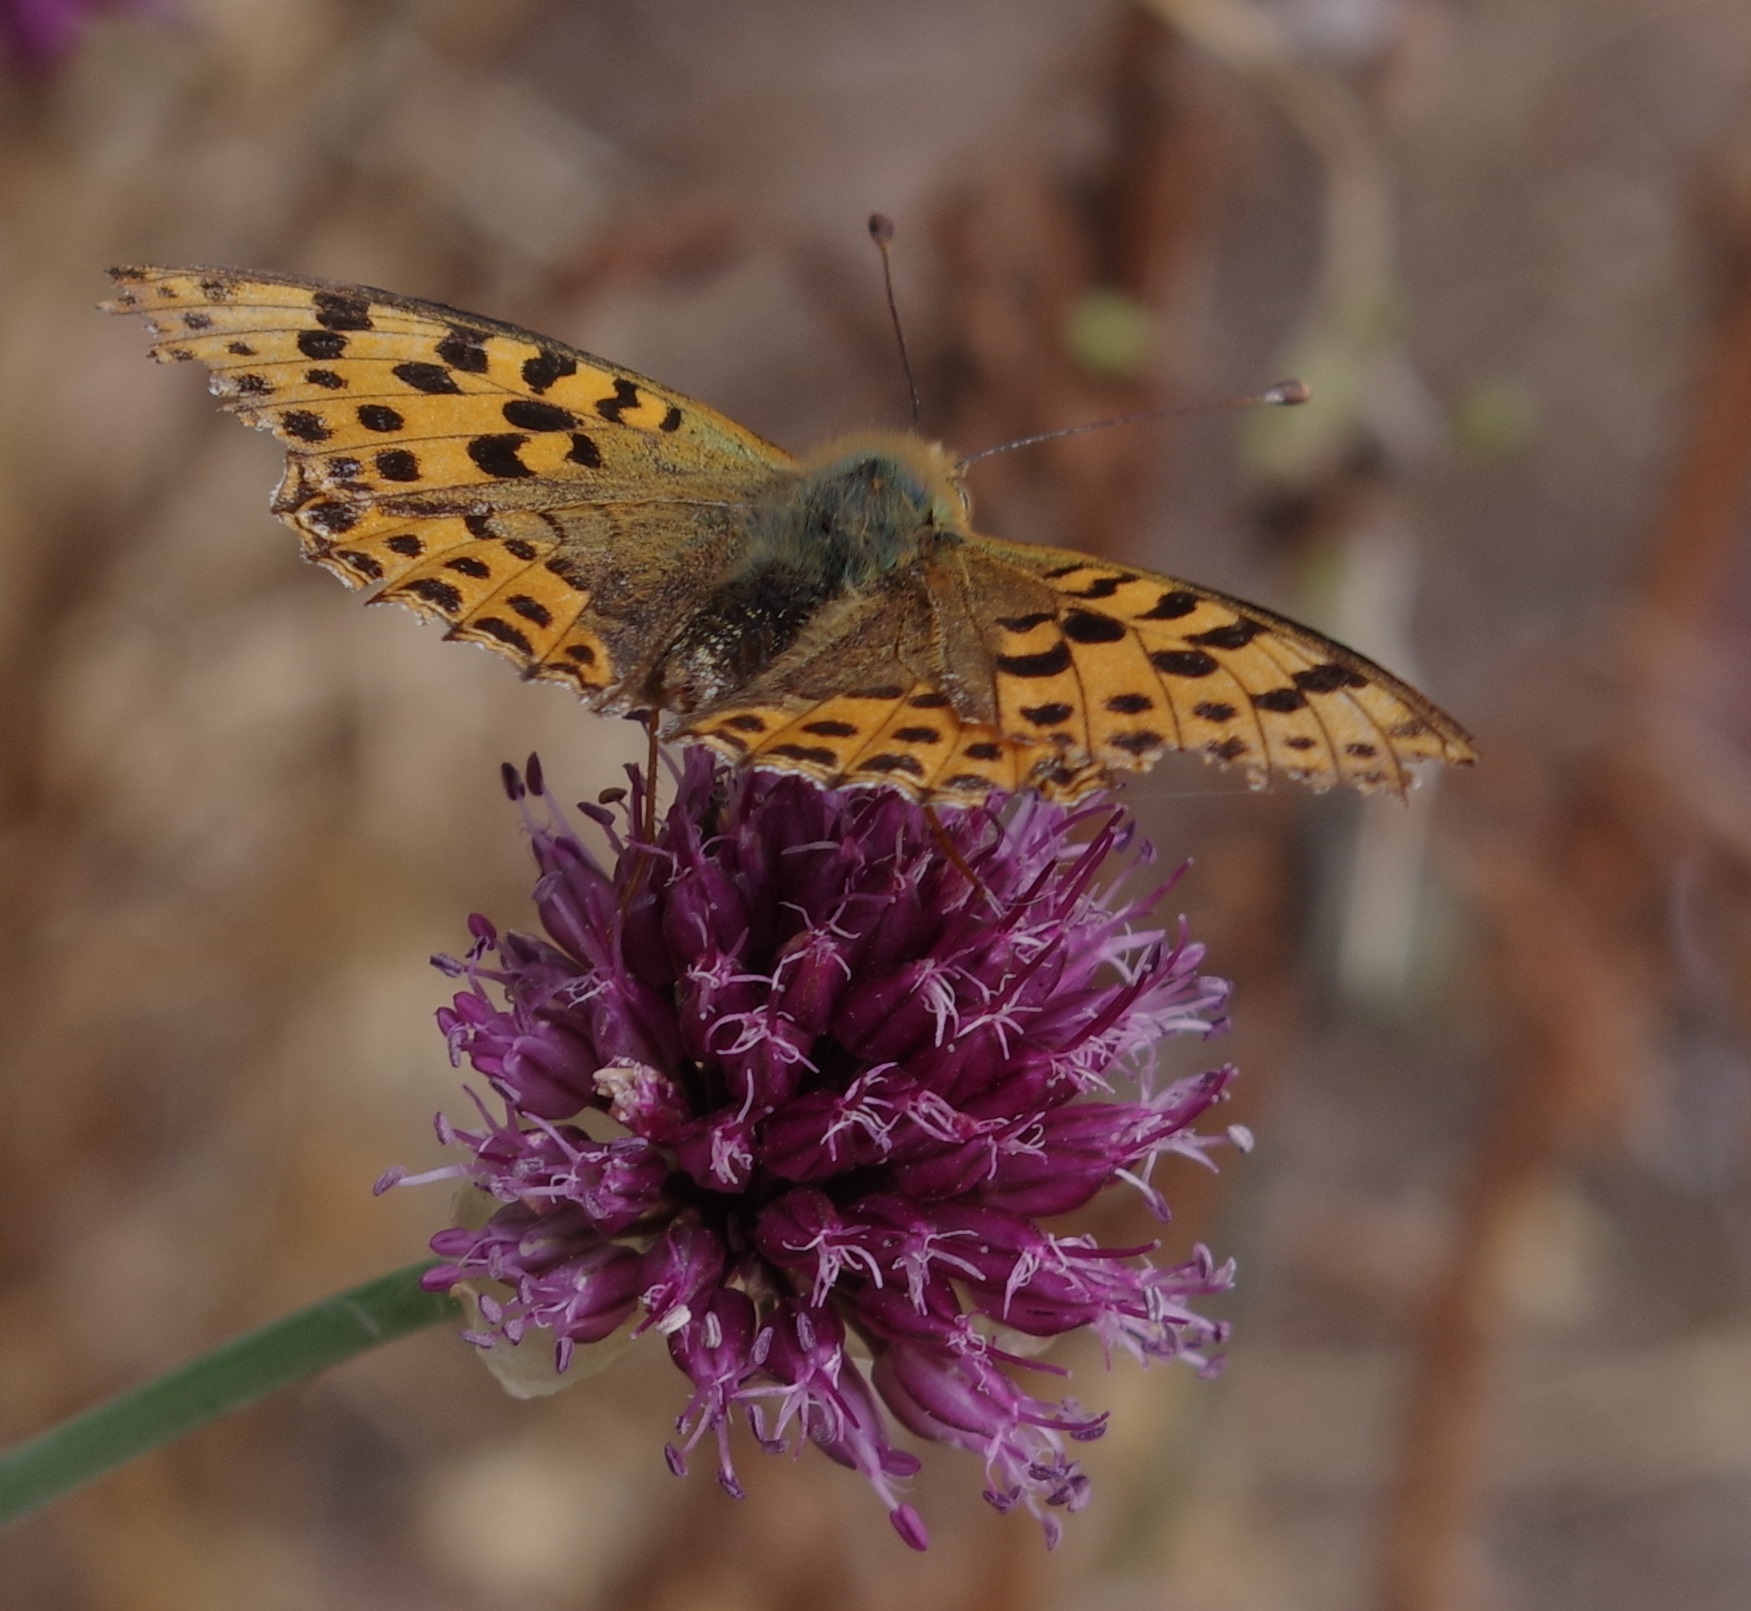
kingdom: Animalia
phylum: Arthropoda
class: Insecta
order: Lepidoptera
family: Nymphalidae
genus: Issoria
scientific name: Issoria lathonia
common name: Queen of spain fritillary
